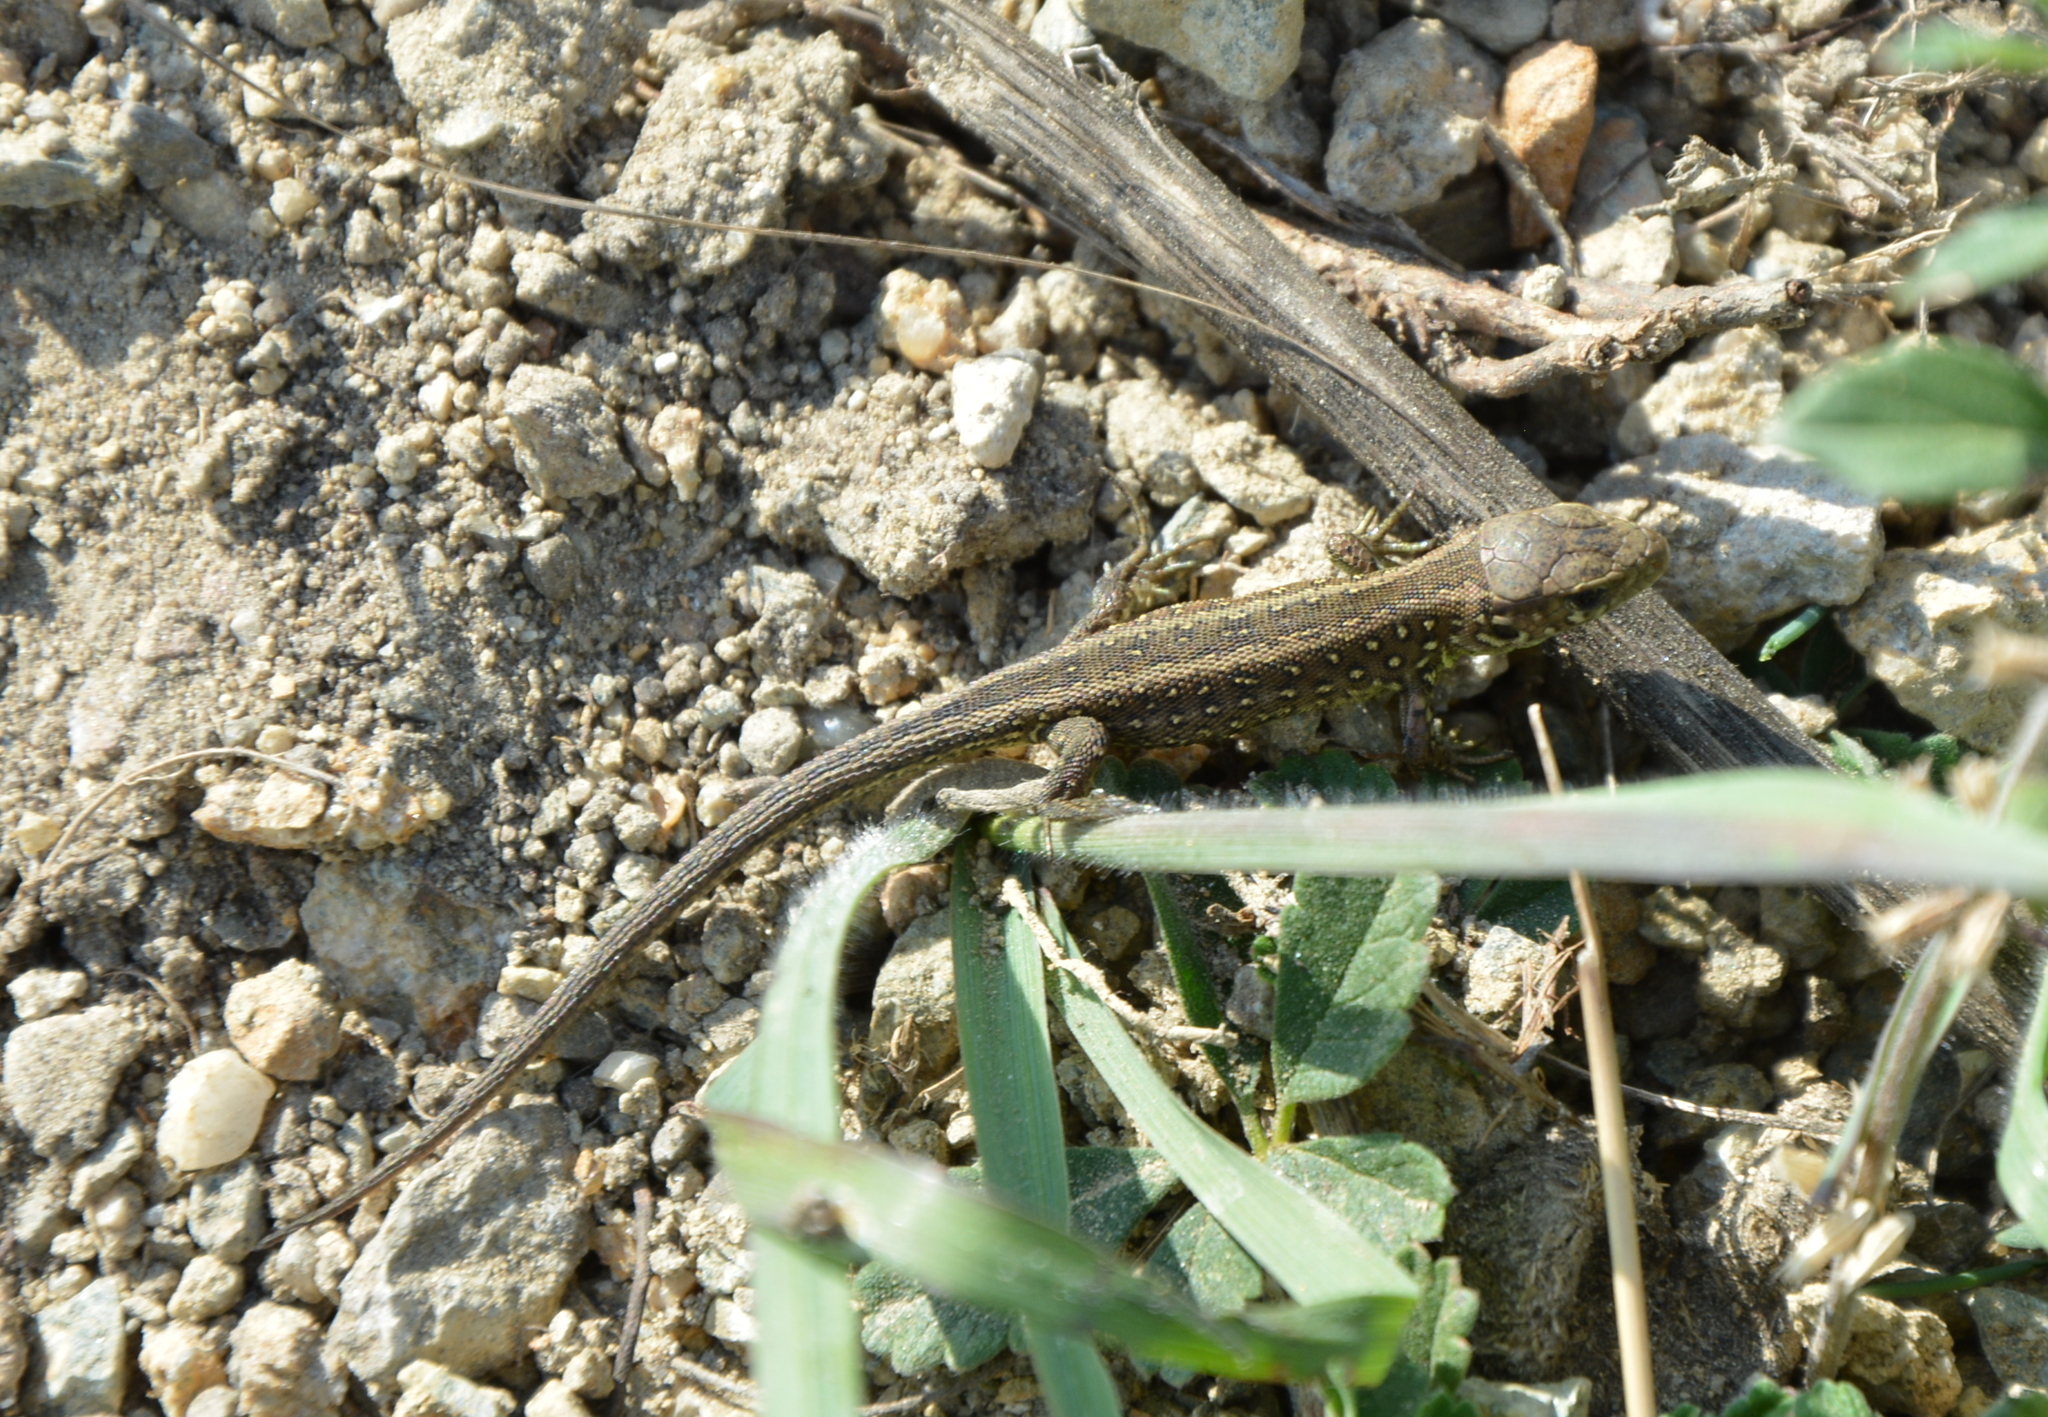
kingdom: Animalia
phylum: Chordata
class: Squamata
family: Lacertidae
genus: Lacerta
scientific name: Lacerta agilis
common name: Sand lizard
